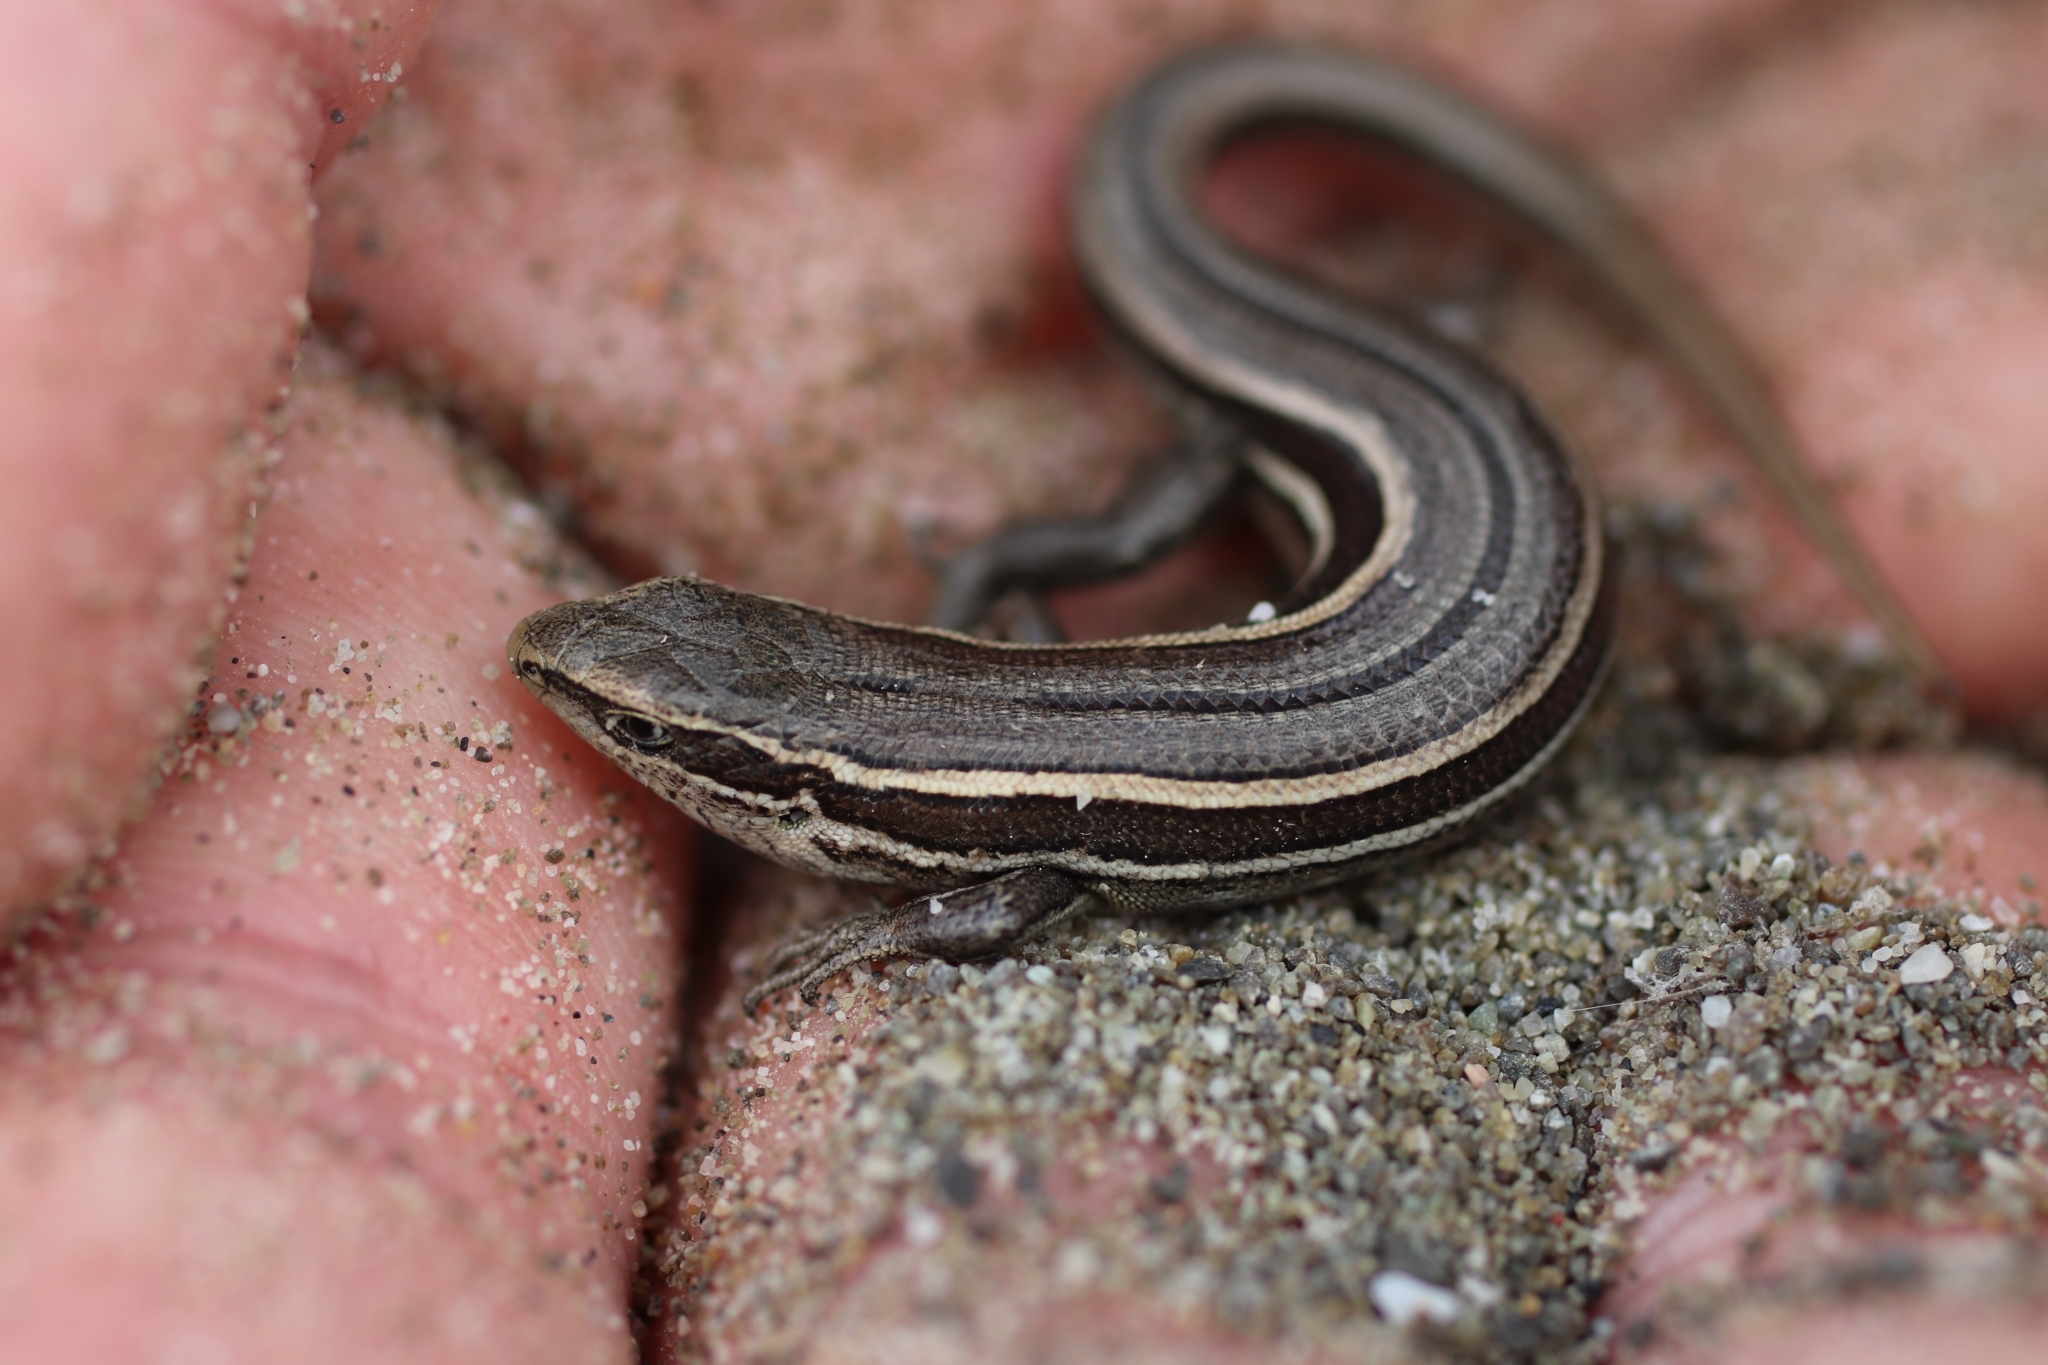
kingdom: Animalia
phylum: Chordata
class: Squamata
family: Scincidae
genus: Oligosoma
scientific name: Oligosoma maccanni
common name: Mccann’s skink
